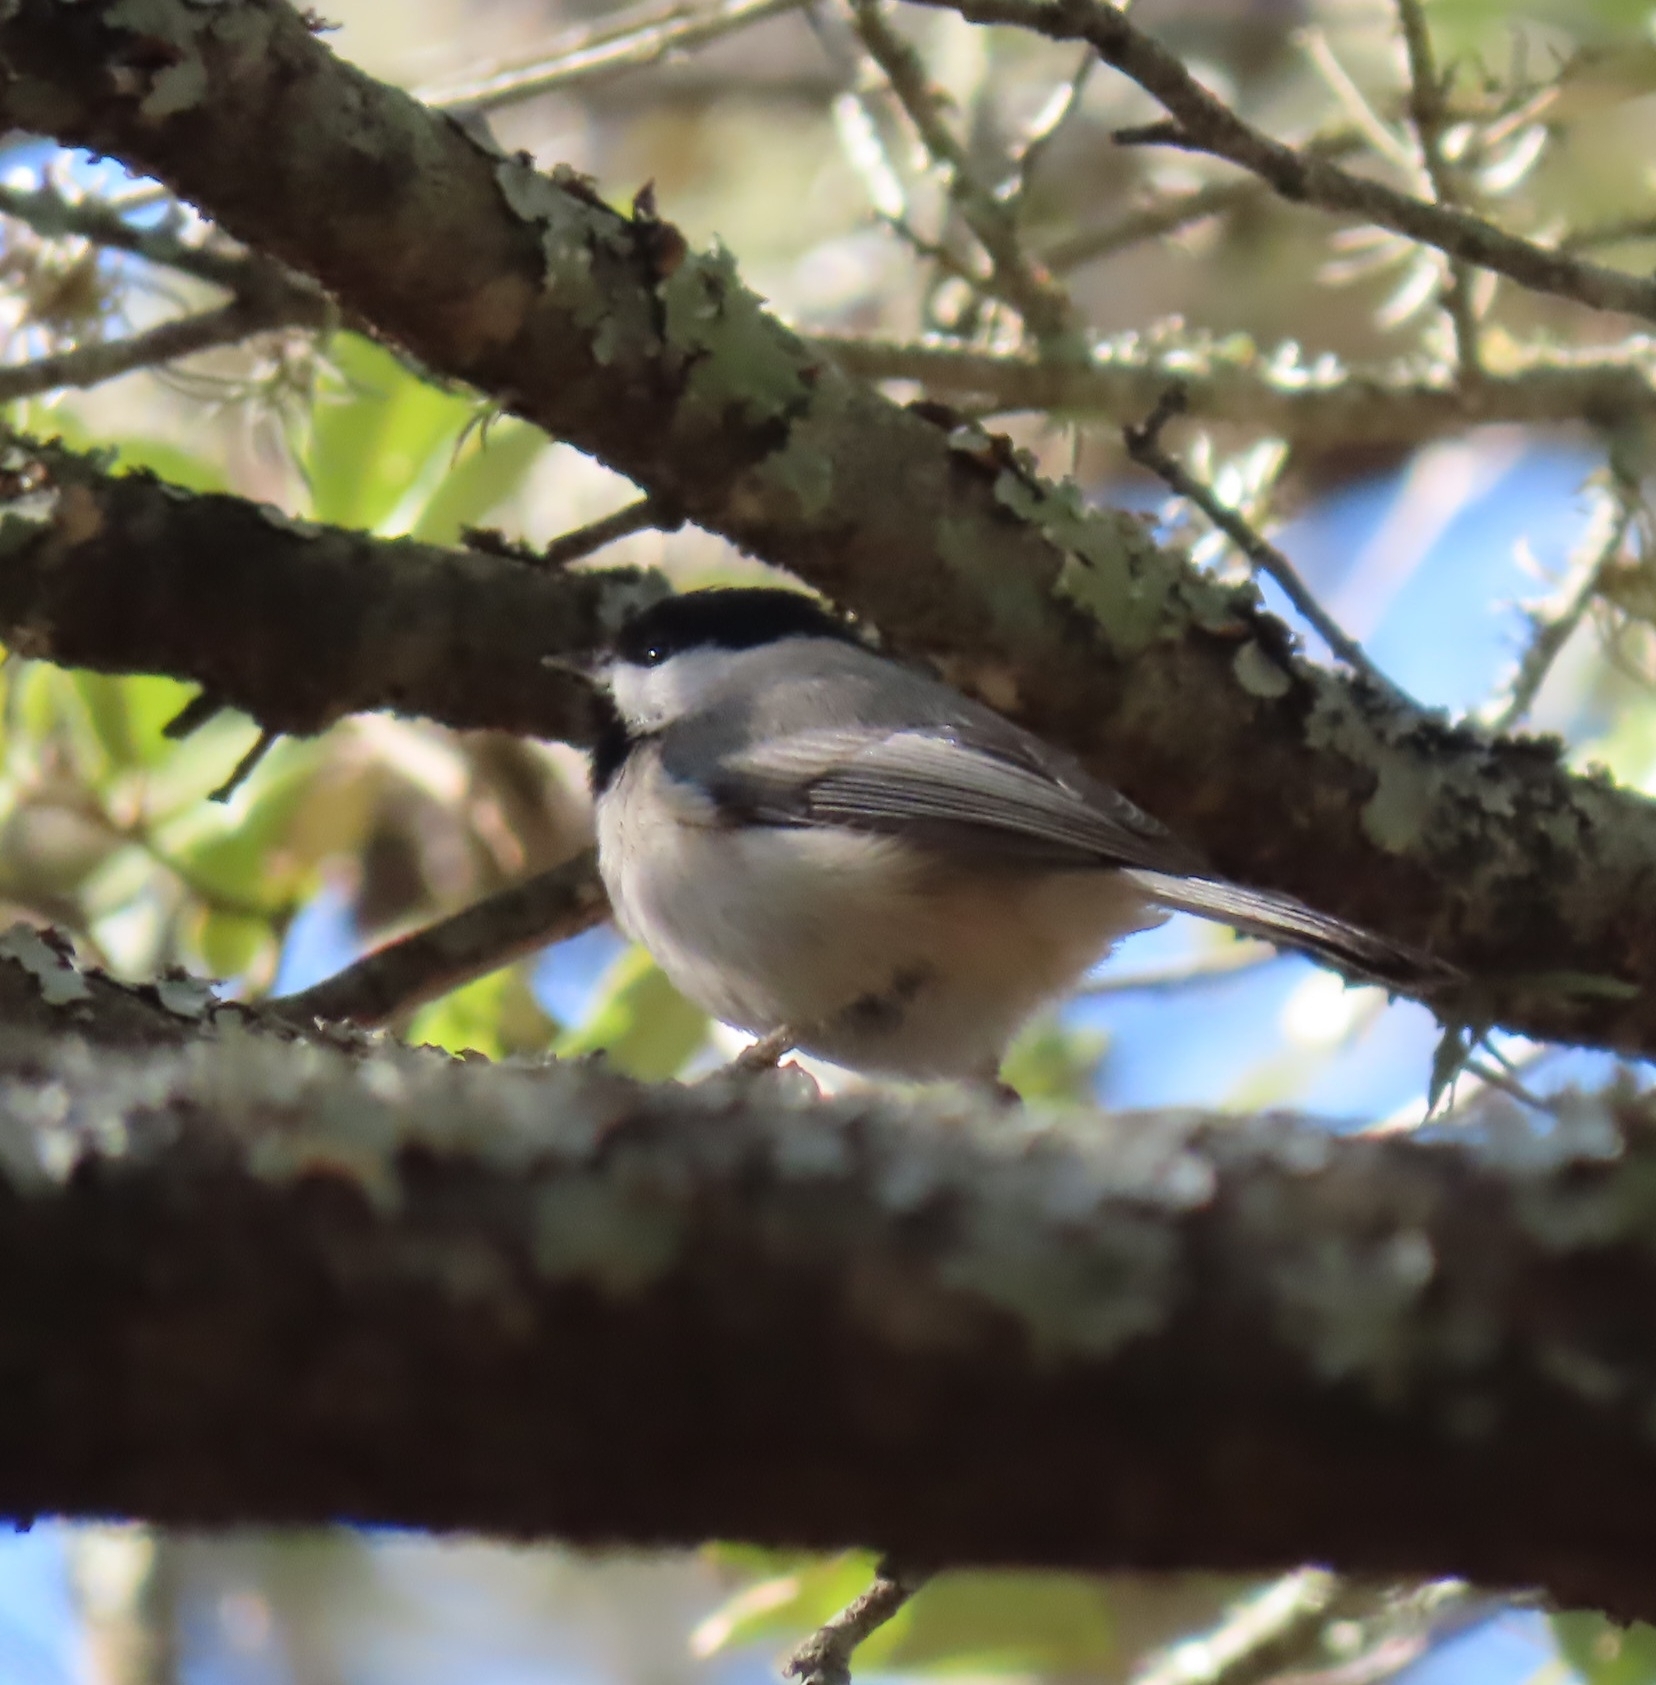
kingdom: Animalia
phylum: Chordata
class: Aves
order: Passeriformes
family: Paridae
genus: Poecile
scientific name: Poecile carolinensis
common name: Carolina chickadee
